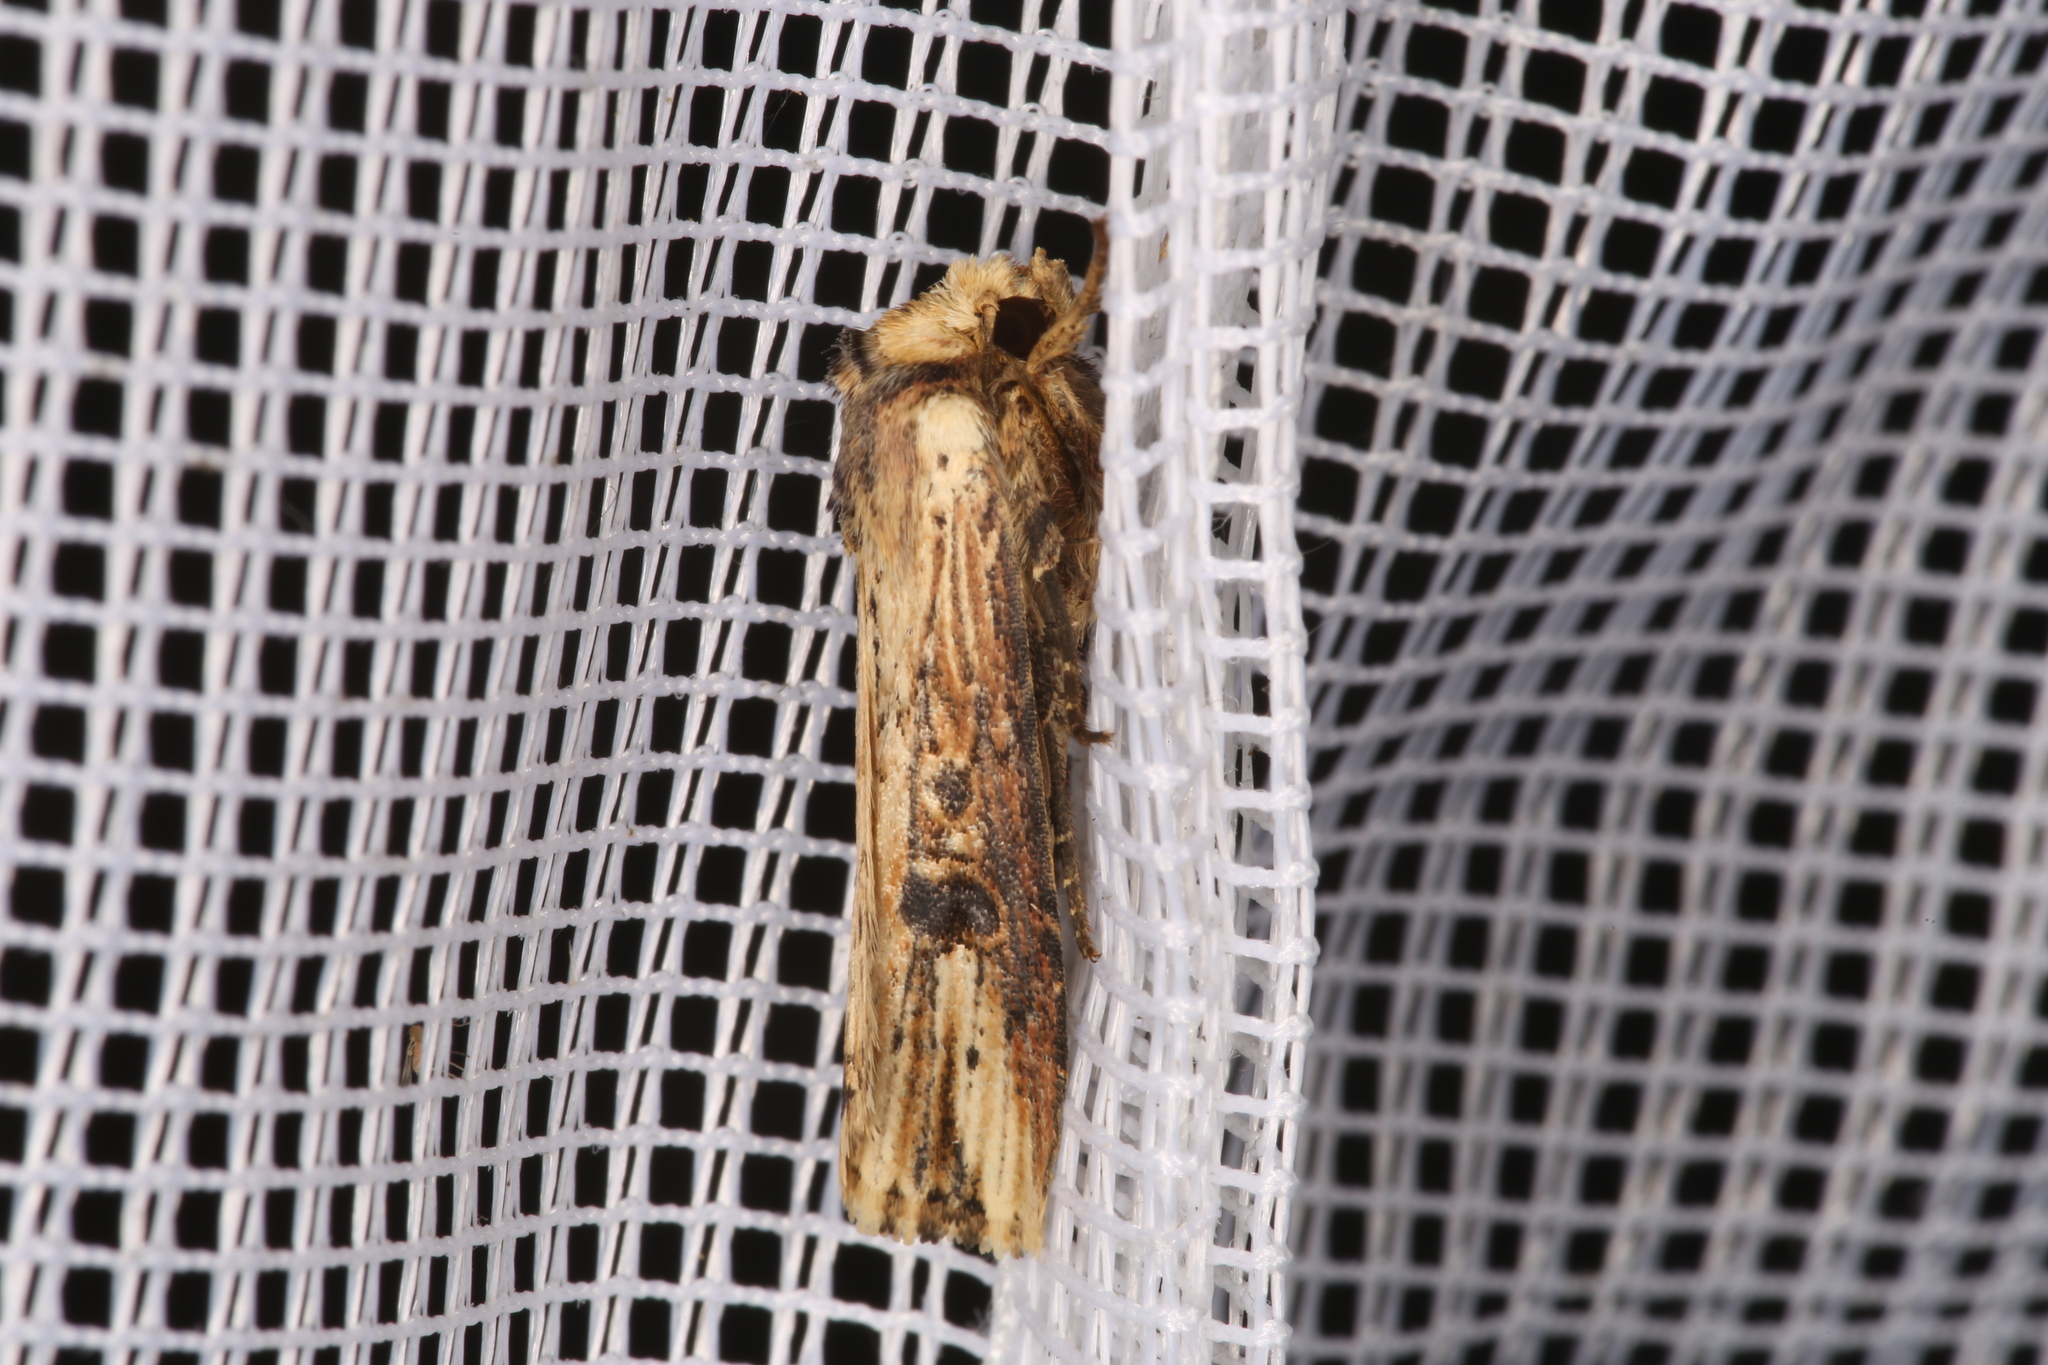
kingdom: Animalia
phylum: Arthropoda
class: Insecta
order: Lepidoptera
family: Noctuidae
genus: Axylia
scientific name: Axylia putris
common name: Flame
